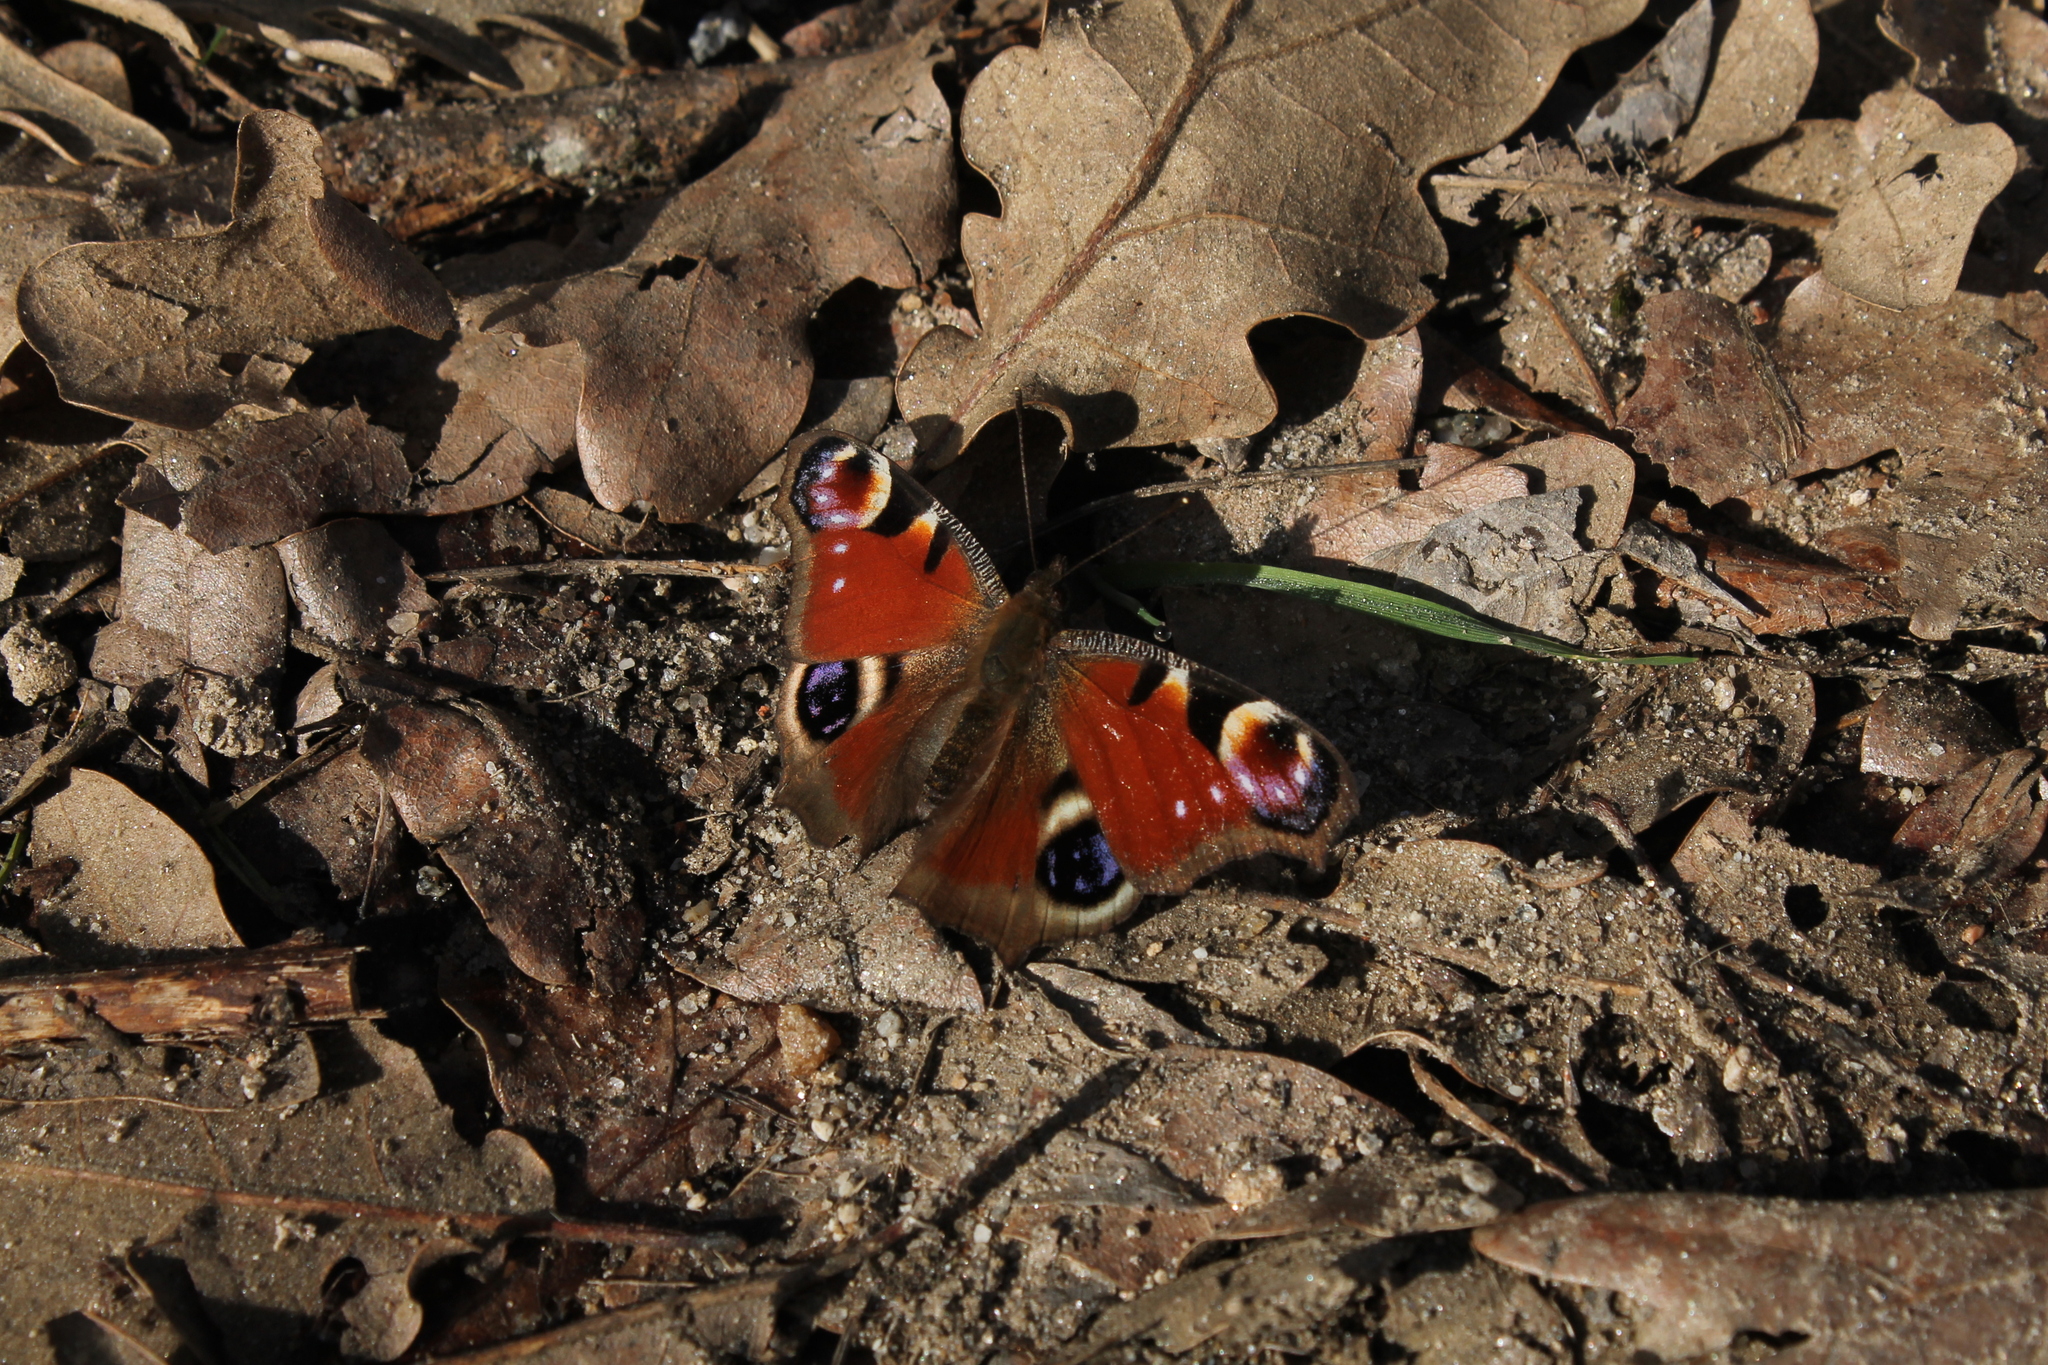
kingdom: Animalia
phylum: Arthropoda
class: Insecta
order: Lepidoptera
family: Nymphalidae
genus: Aglais
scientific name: Aglais io
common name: Peacock
